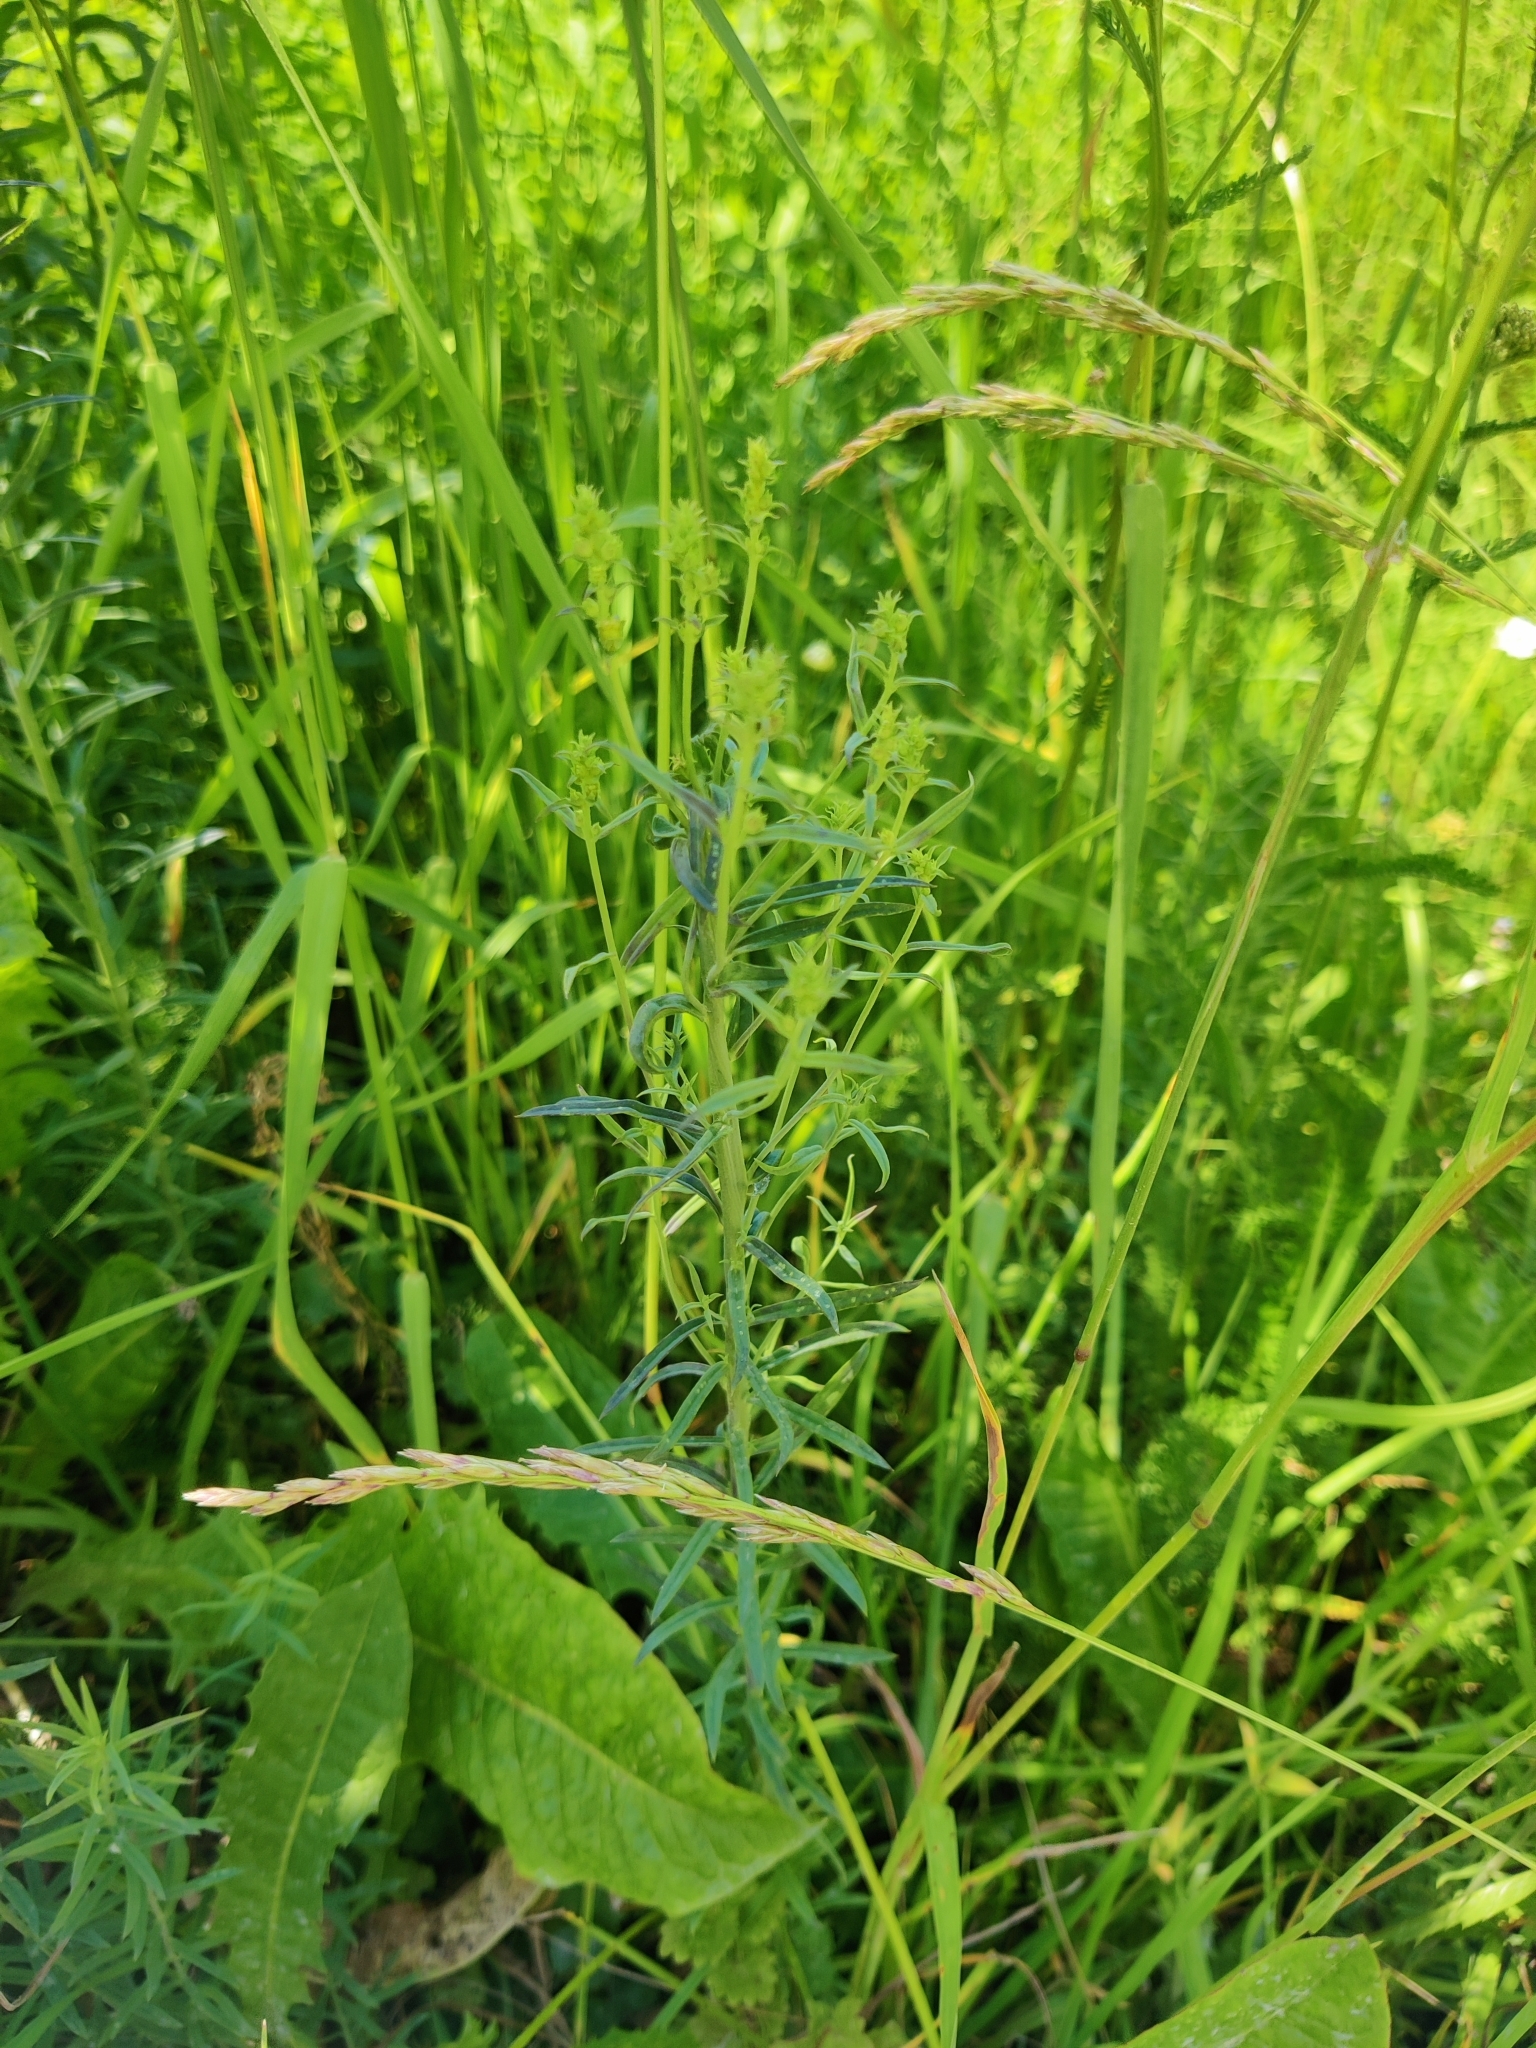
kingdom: Plantae
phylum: Tracheophyta
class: Magnoliopsida
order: Lamiales
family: Plantaginaceae
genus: Linaria
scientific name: Linaria vulgaris
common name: Butter and eggs
